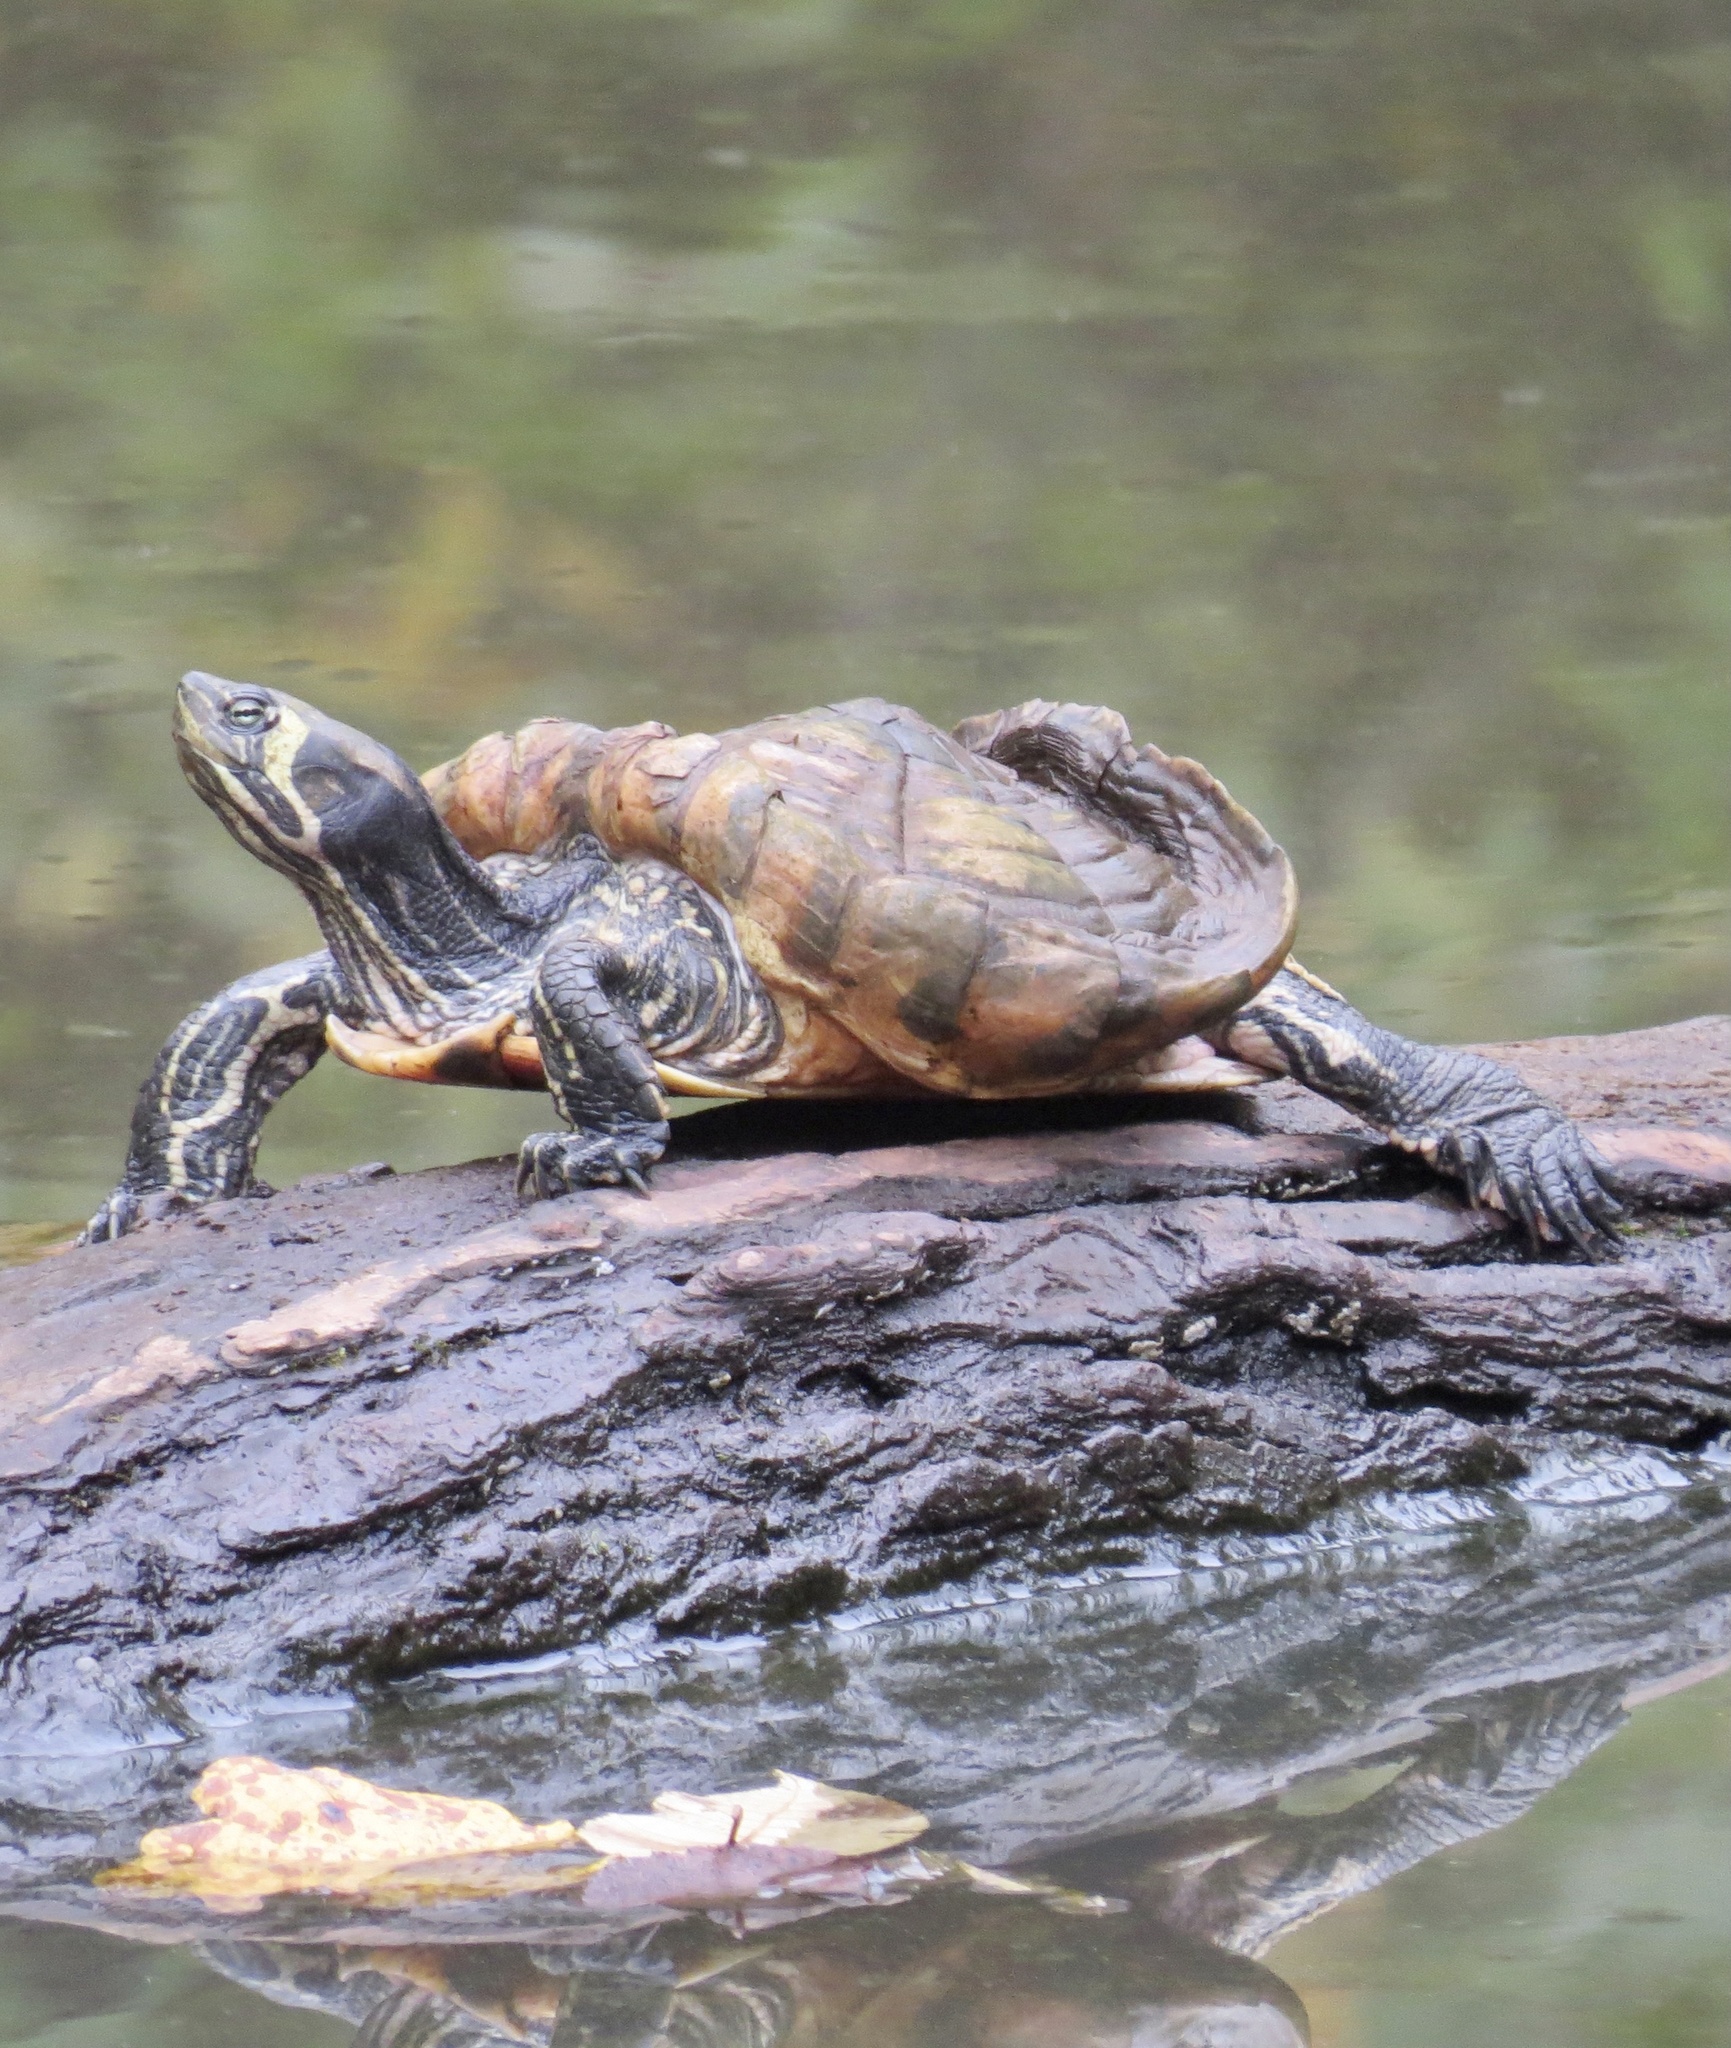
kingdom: Animalia
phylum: Chordata
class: Testudines
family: Emydidae
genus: Trachemys
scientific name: Trachemys scripta
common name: Slider
